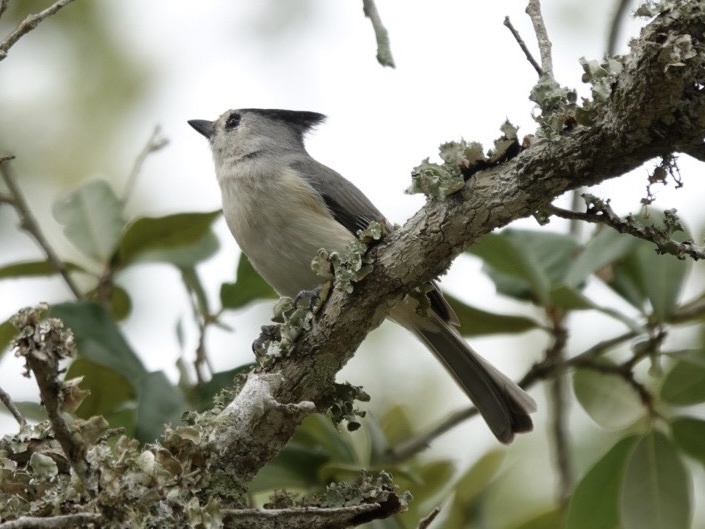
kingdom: Animalia
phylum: Chordata
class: Aves
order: Passeriformes
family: Paridae
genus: Baeolophus
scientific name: Baeolophus atricristatus
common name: Black-crested titmouse
